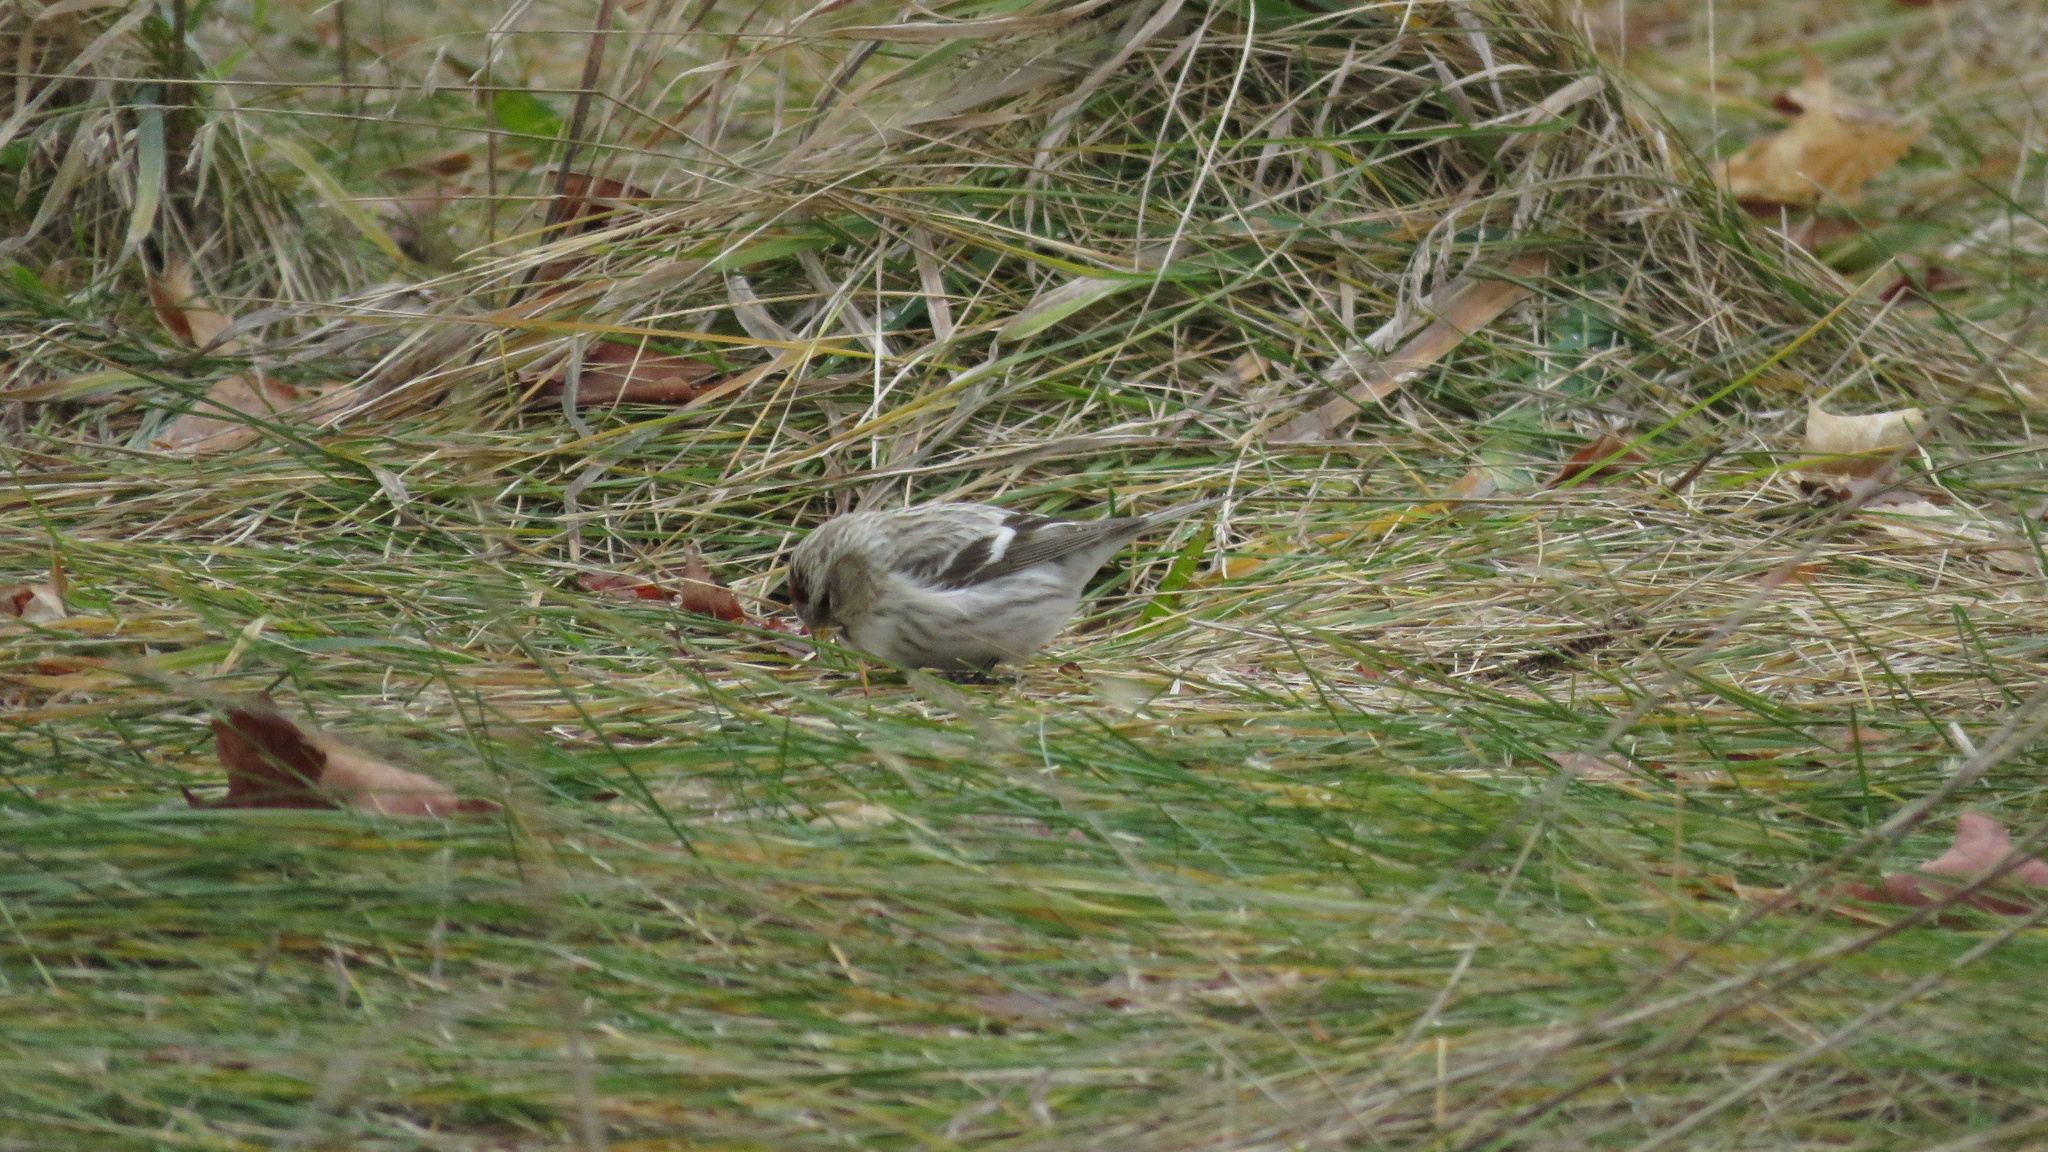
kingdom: Animalia
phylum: Chordata
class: Aves
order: Passeriformes
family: Fringillidae
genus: Acanthis
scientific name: Acanthis hornemanni
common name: Arctic redpoll
